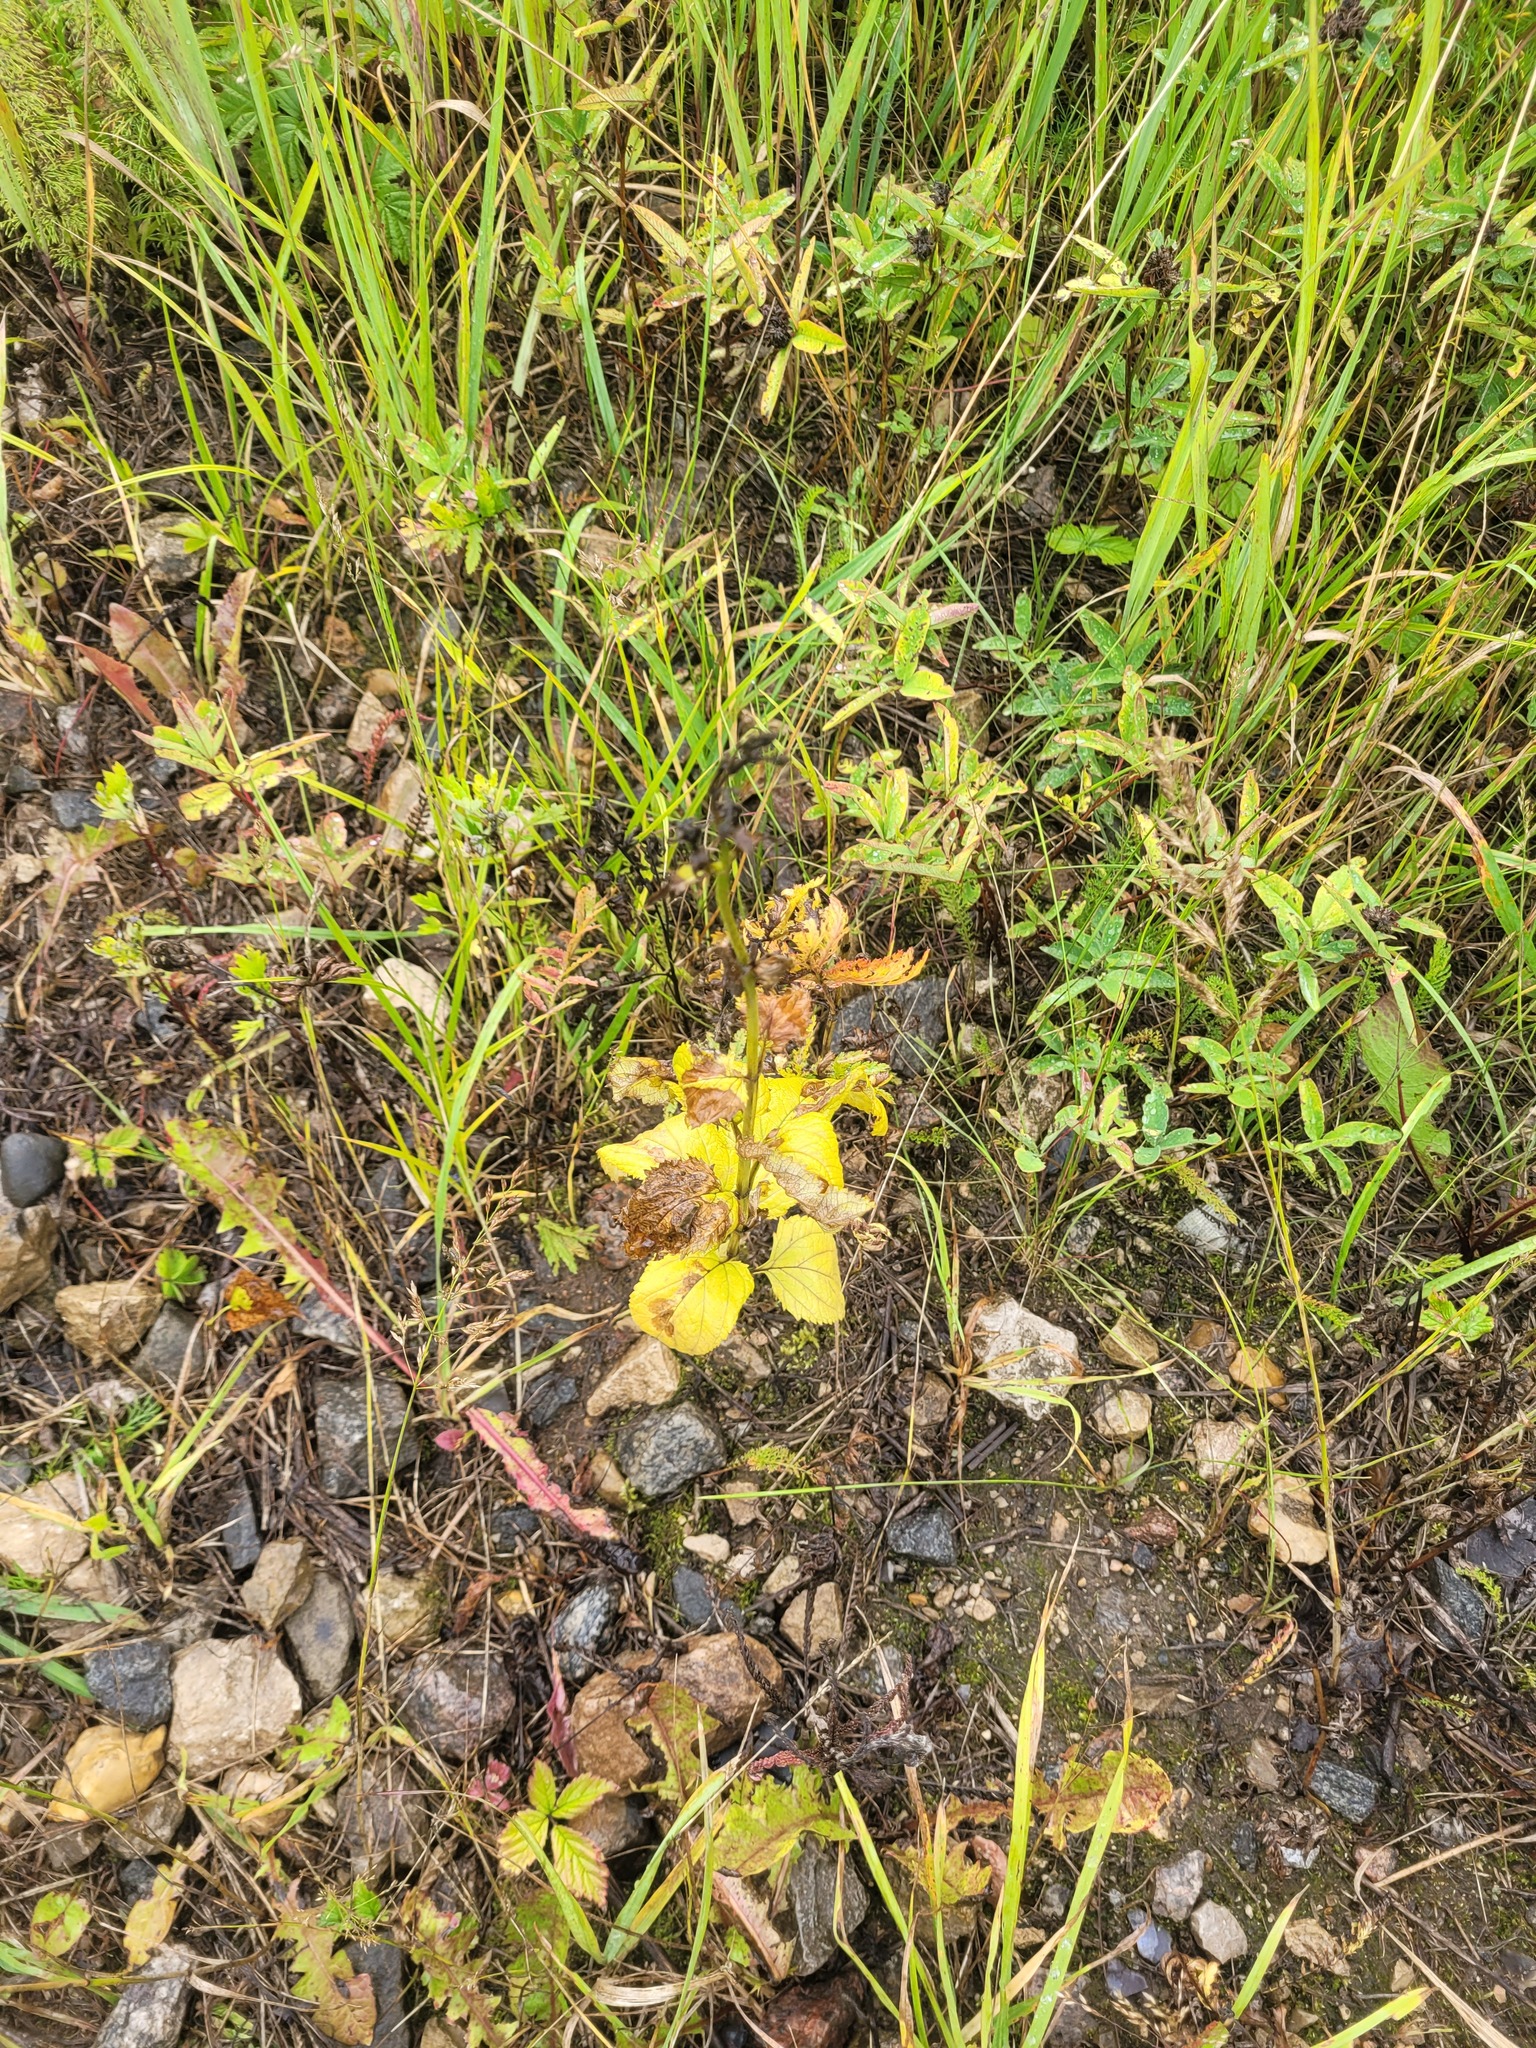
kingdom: Plantae
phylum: Tracheophyta
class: Magnoliopsida
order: Lamiales
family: Scrophulariaceae
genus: Scrophularia
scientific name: Scrophularia nodosa
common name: Common figwort
